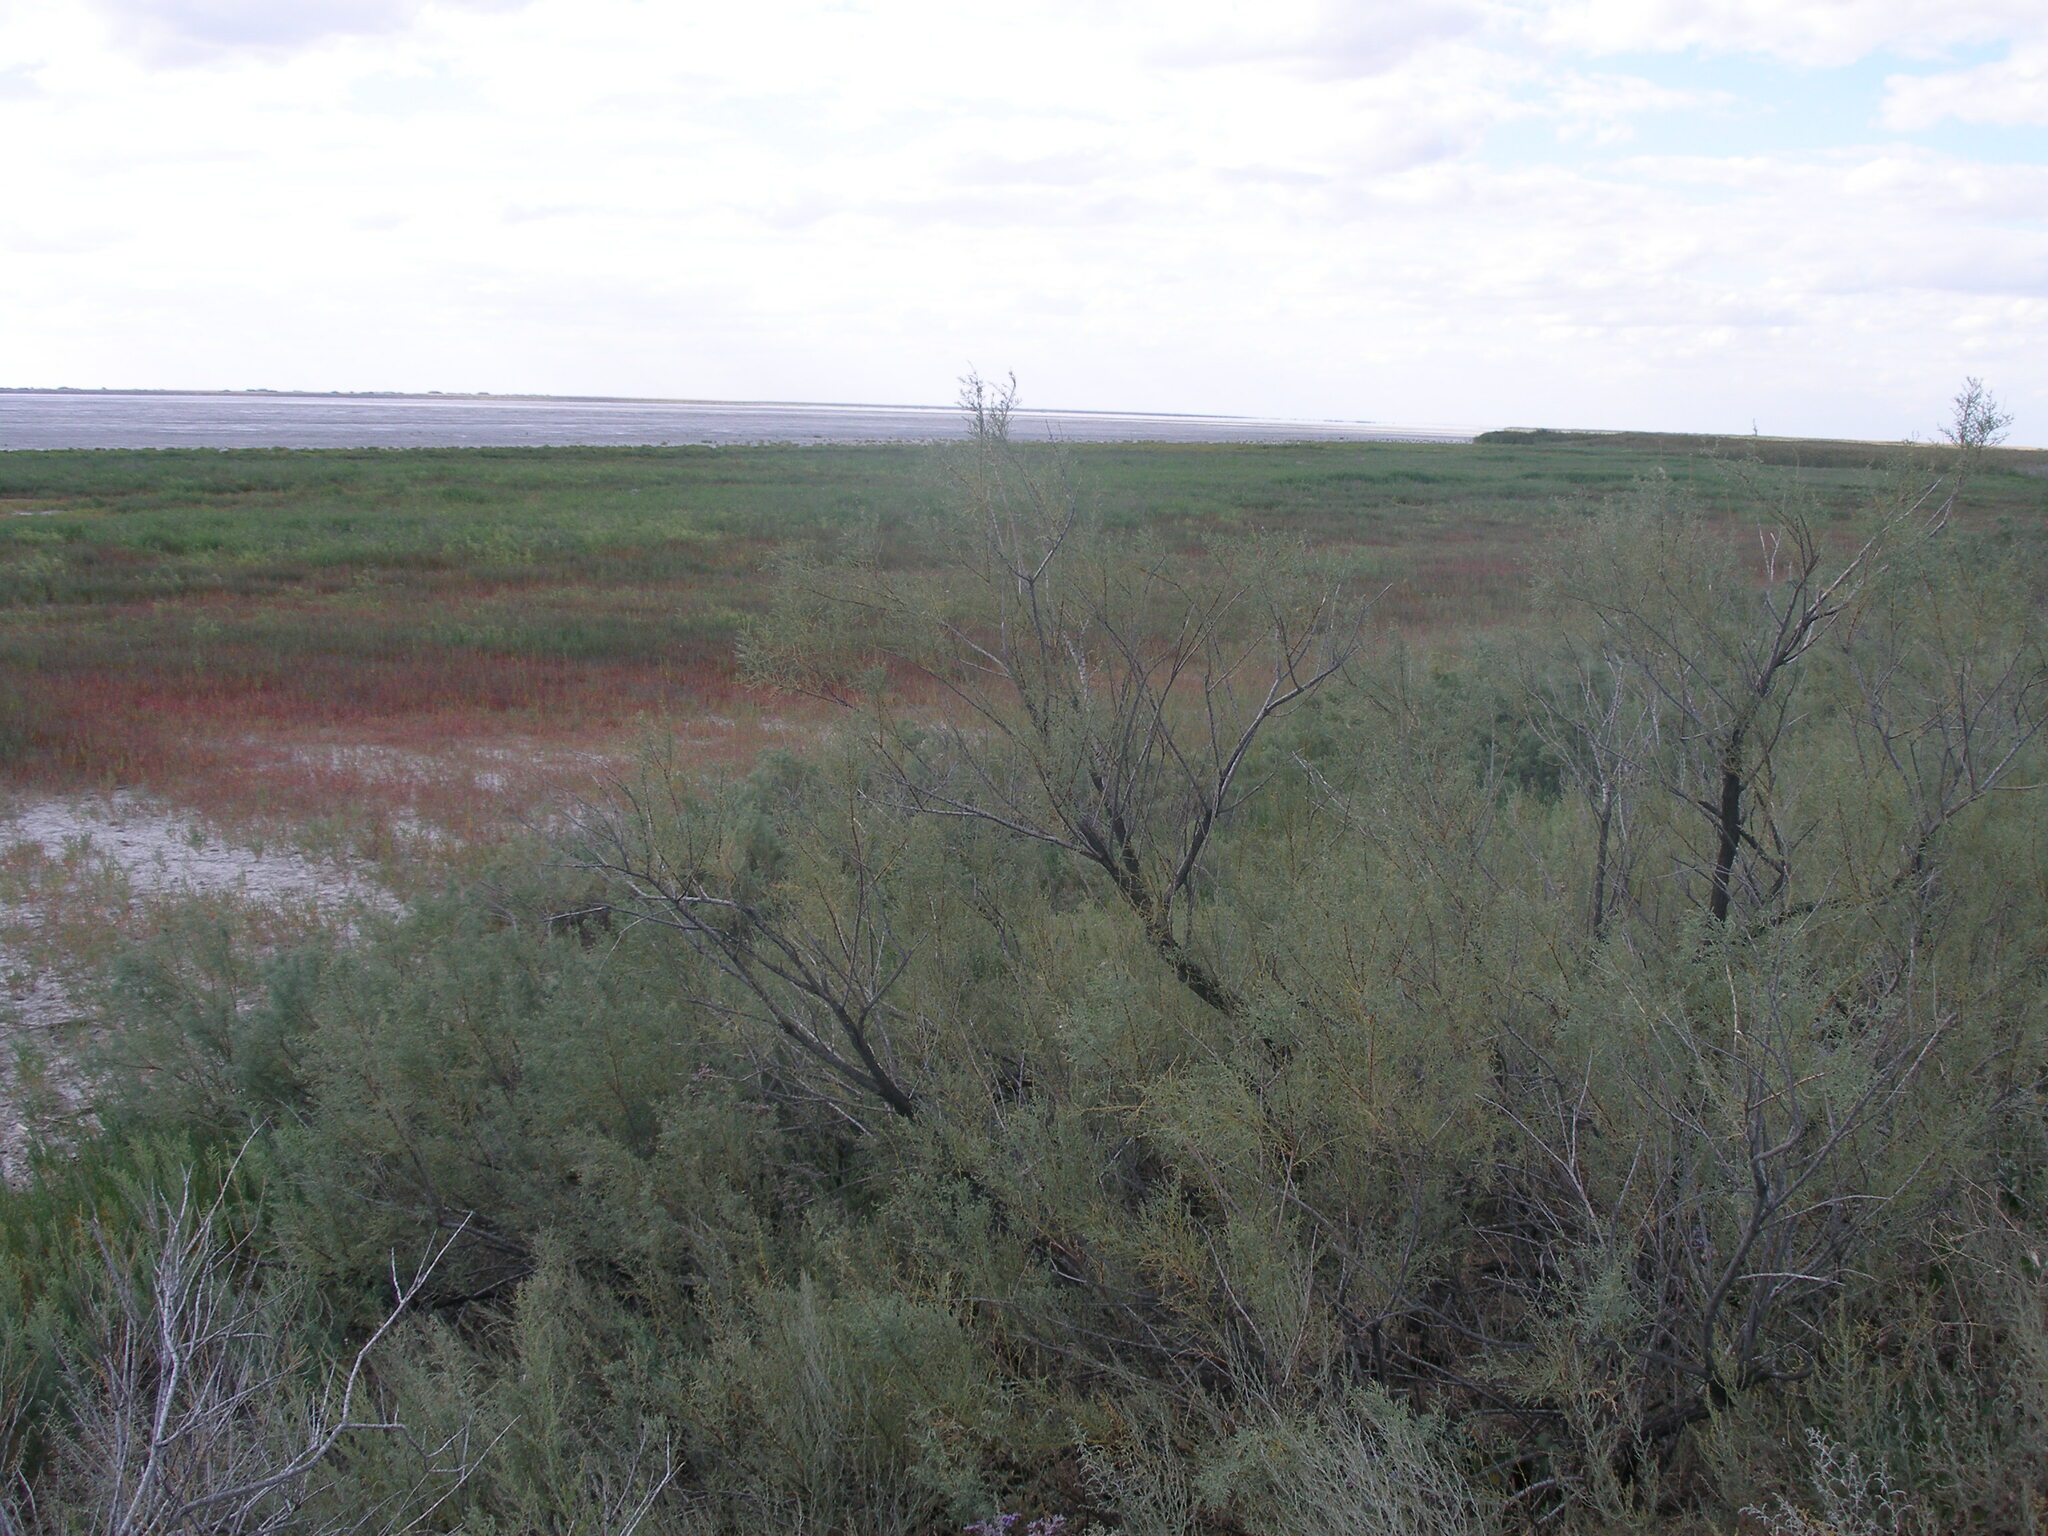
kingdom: Plantae
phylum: Tracheophyta
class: Magnoliopsida
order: Caryophyllales
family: Tamaricaceae
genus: Tamarix
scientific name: Tamarix laxa
